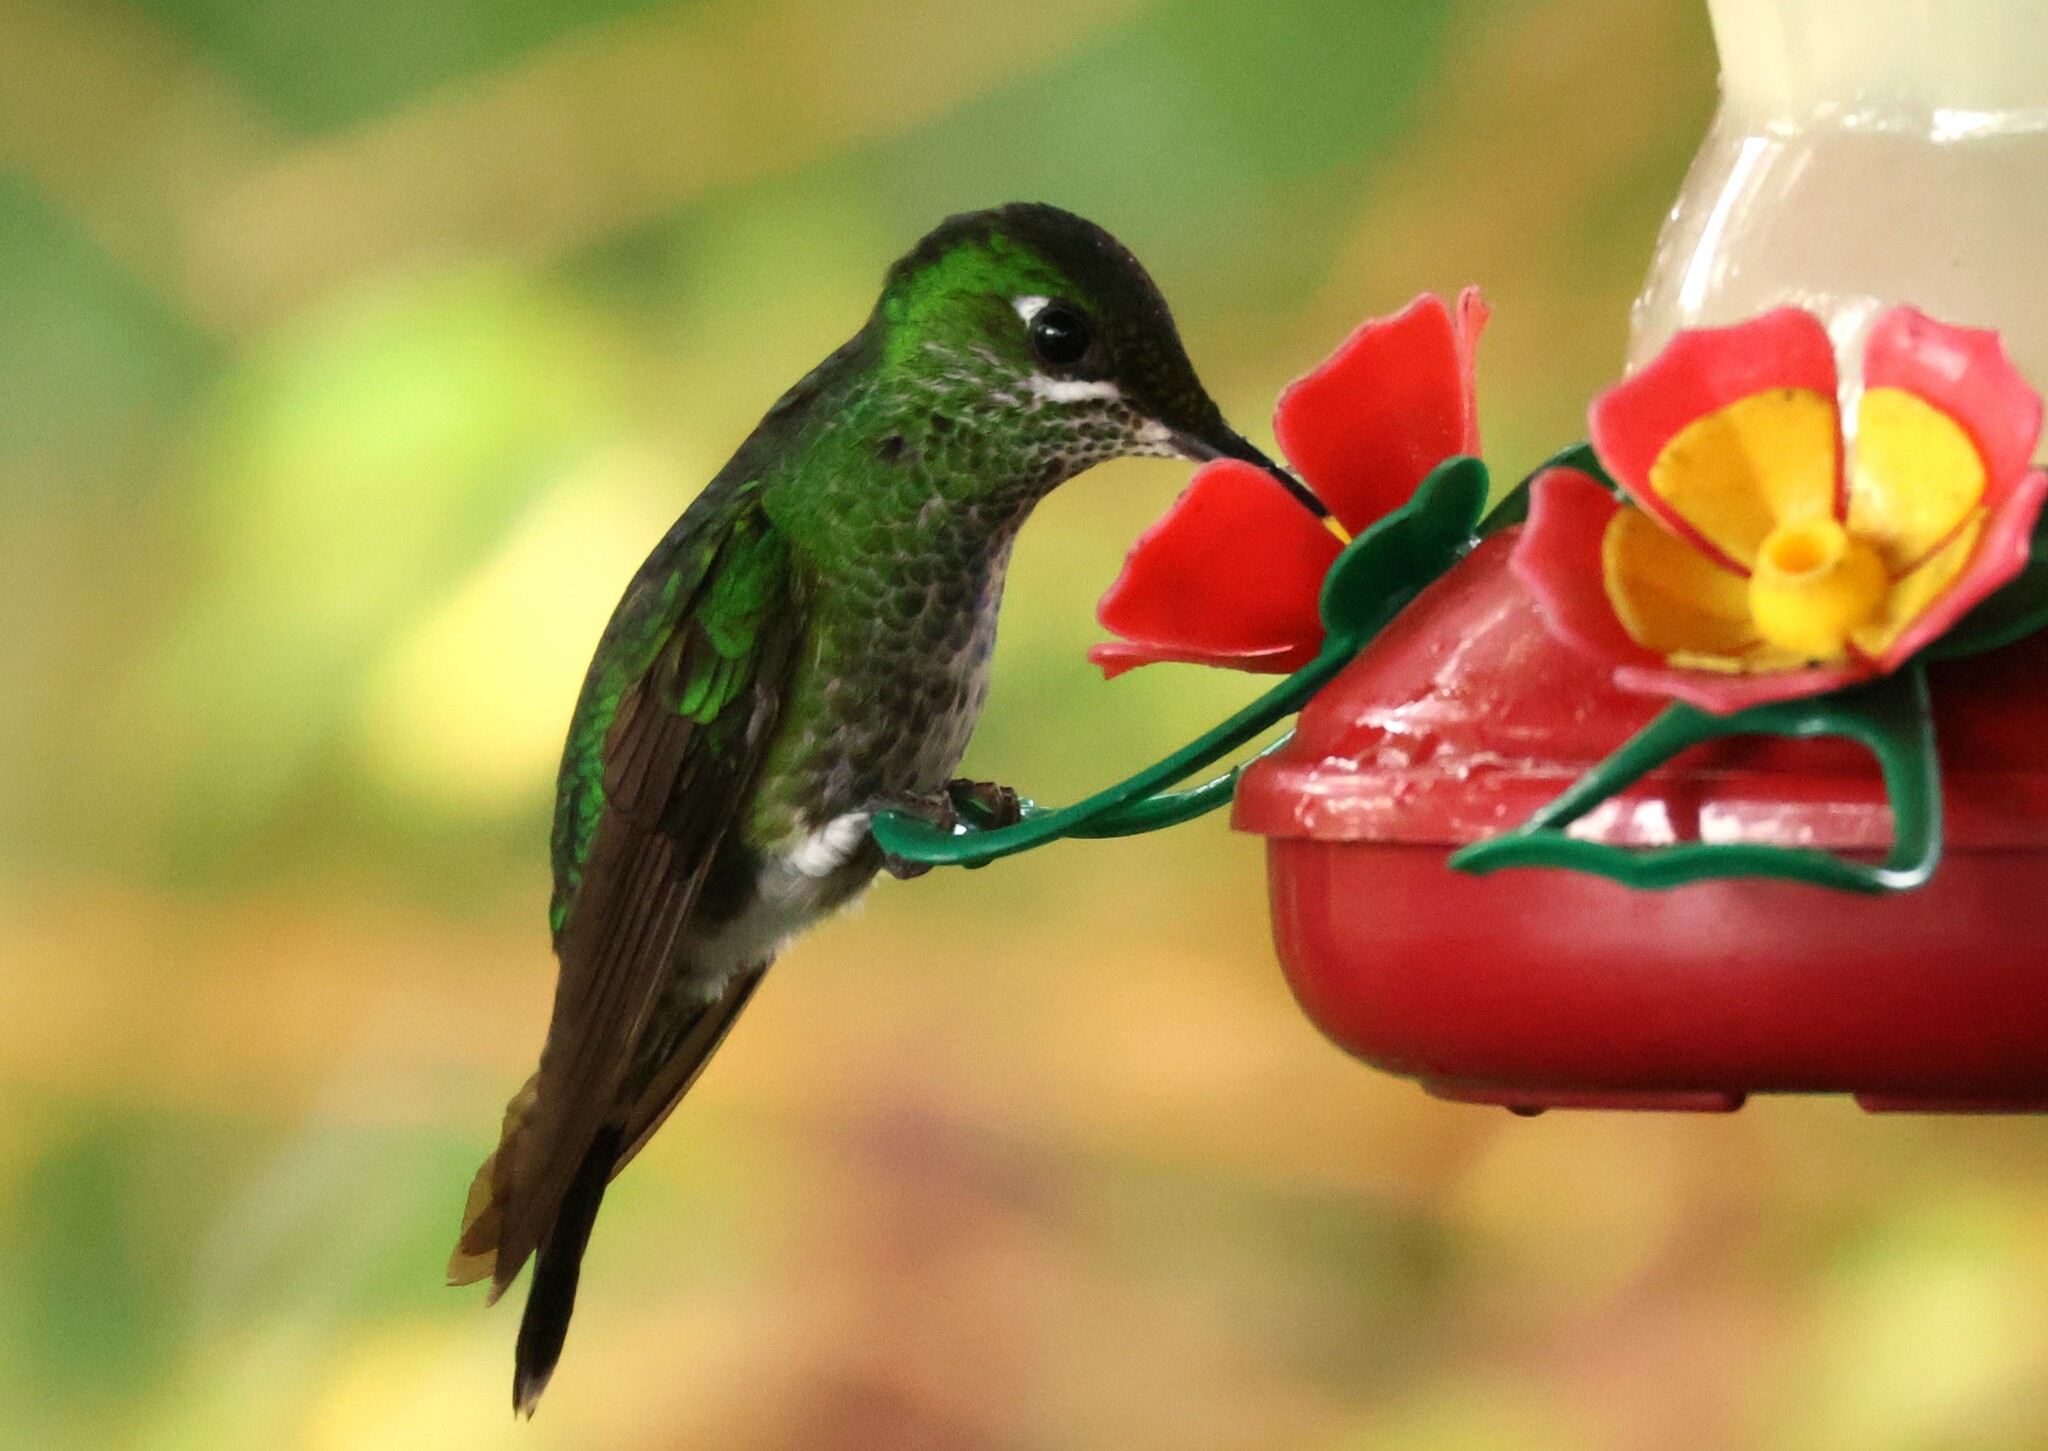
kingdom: Animalia
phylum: Chordata
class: Aves
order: Apodiformes
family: Trochilidae
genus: Heliodoxa
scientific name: Heliodoxa jacula
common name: Green-crowned brilliant
